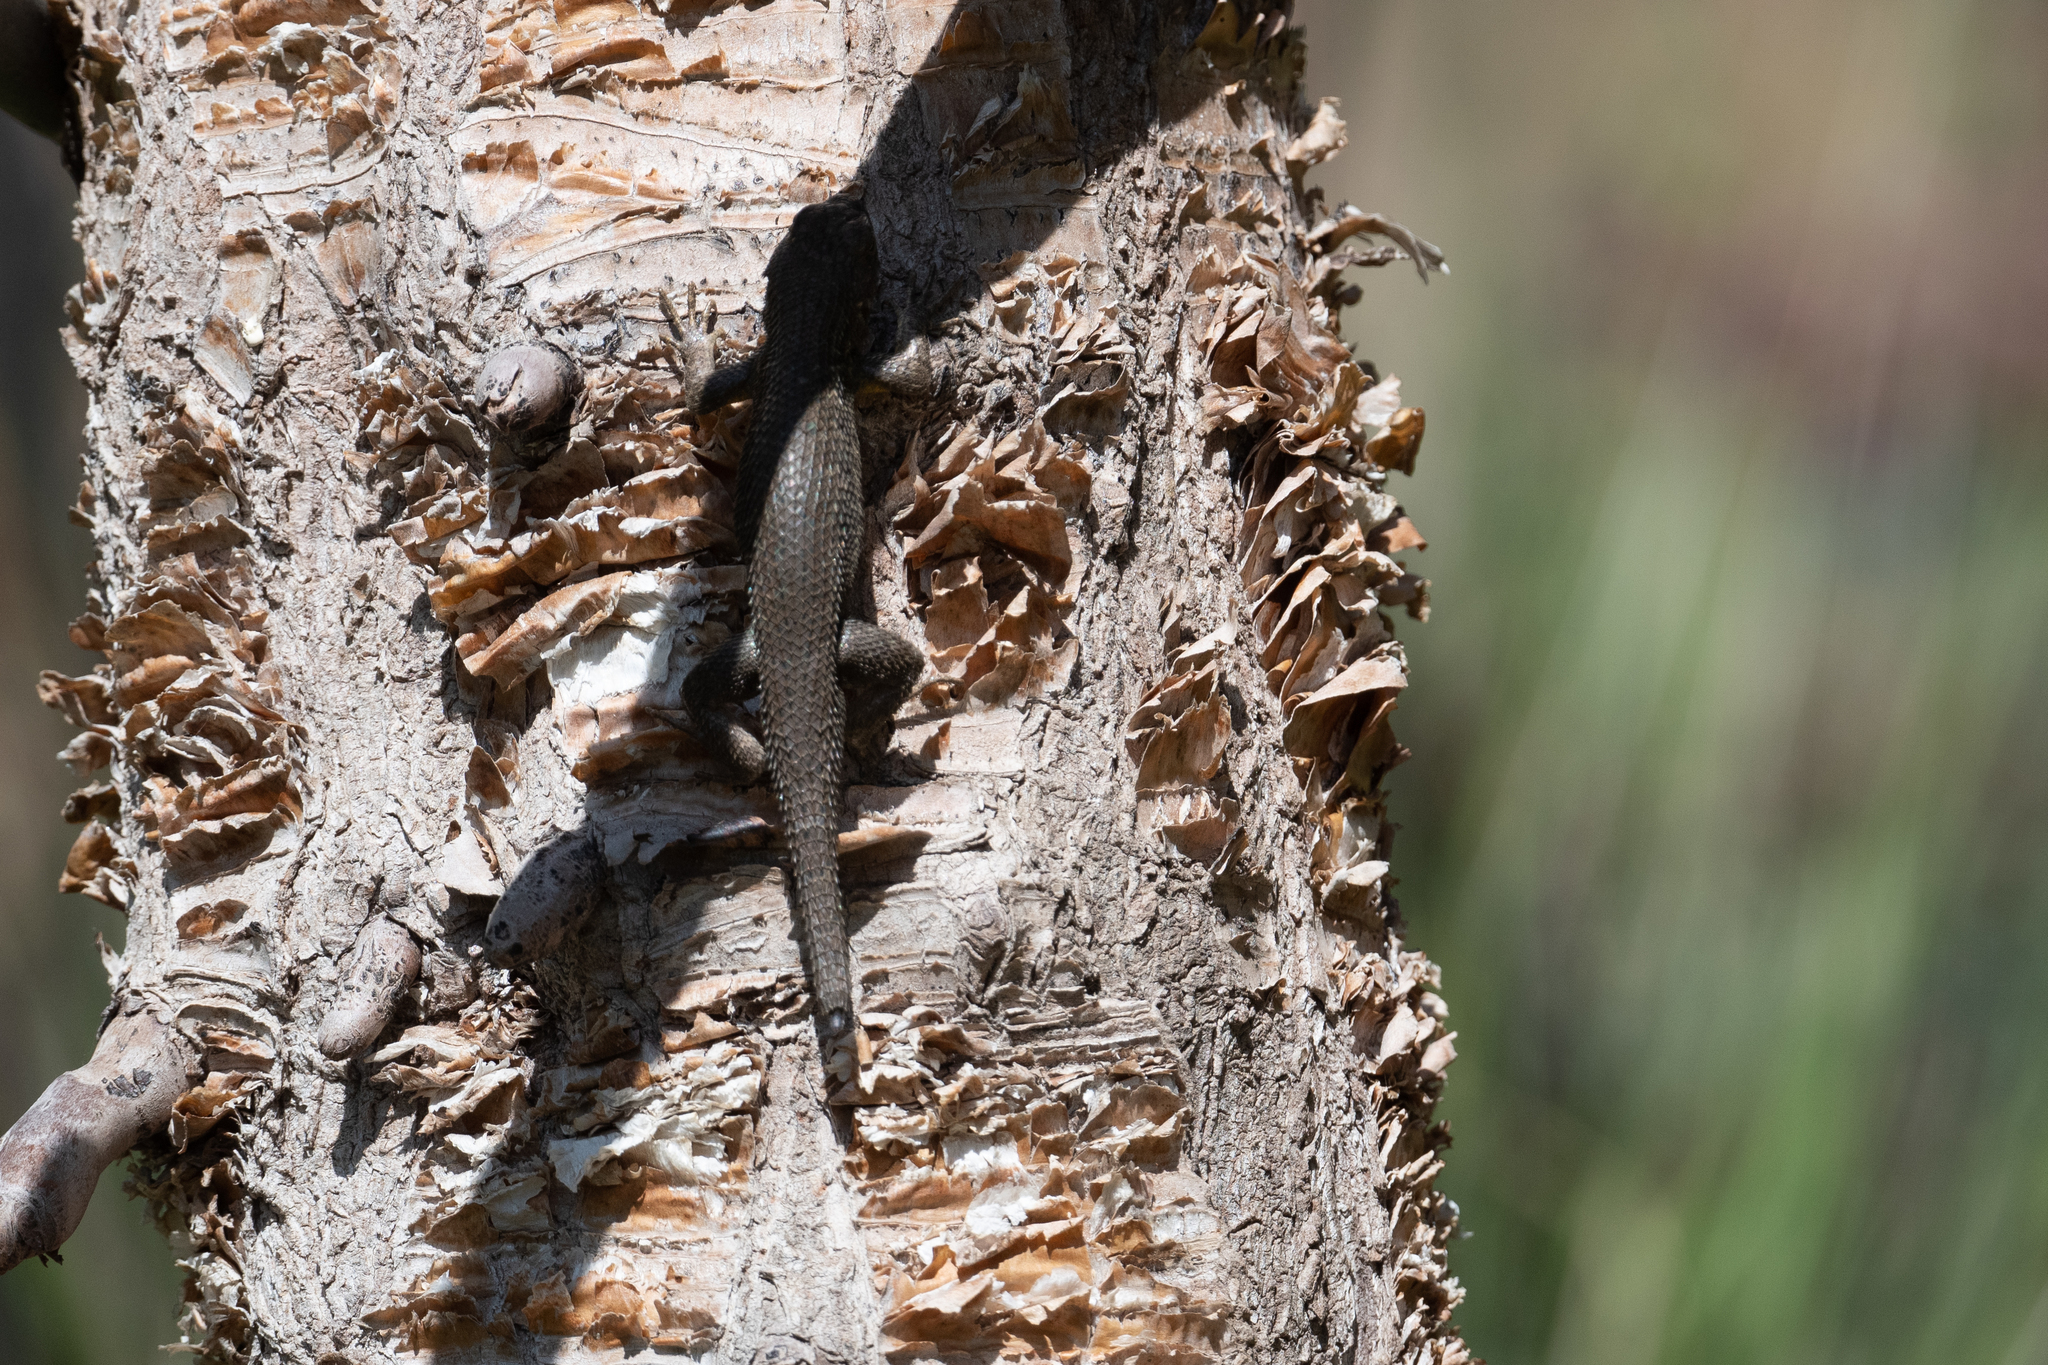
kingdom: Animalia
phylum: Chordata
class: Squamata
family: Phrynosomatidae
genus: Sceloporus
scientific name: Sceloporus occidentalis
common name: Western fence lizard
